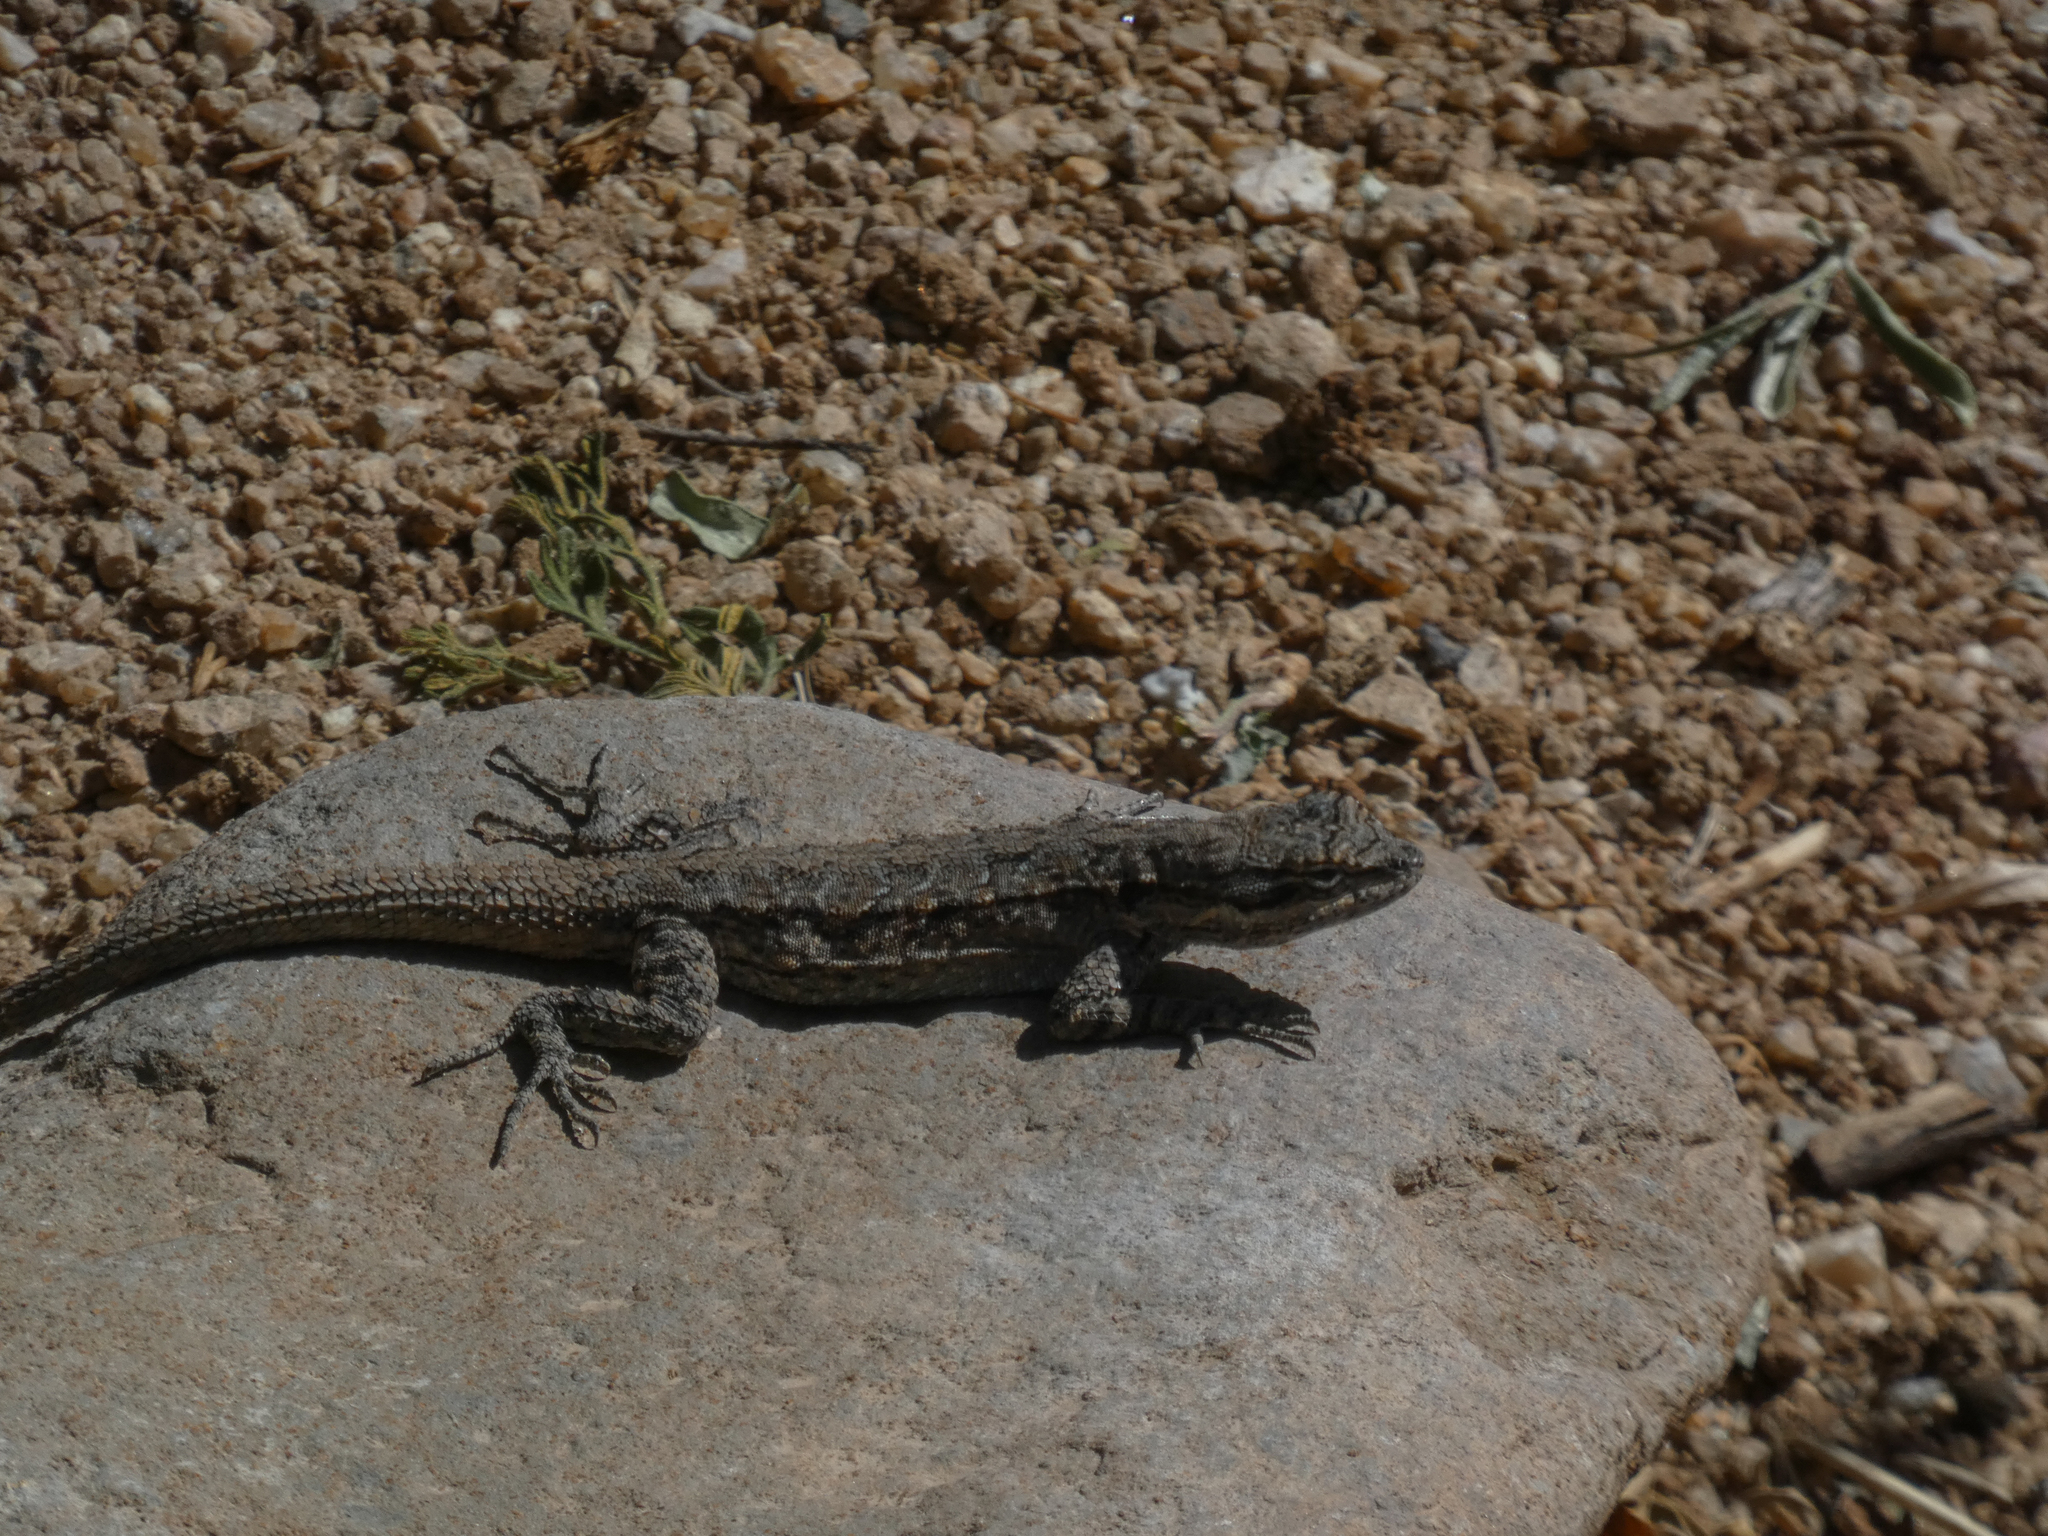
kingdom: Animalia
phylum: Chordata
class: Squamata
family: Phrynosomatidae
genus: Urosaurus
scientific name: Urosaurus ornatus
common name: Ornate tree lizard
